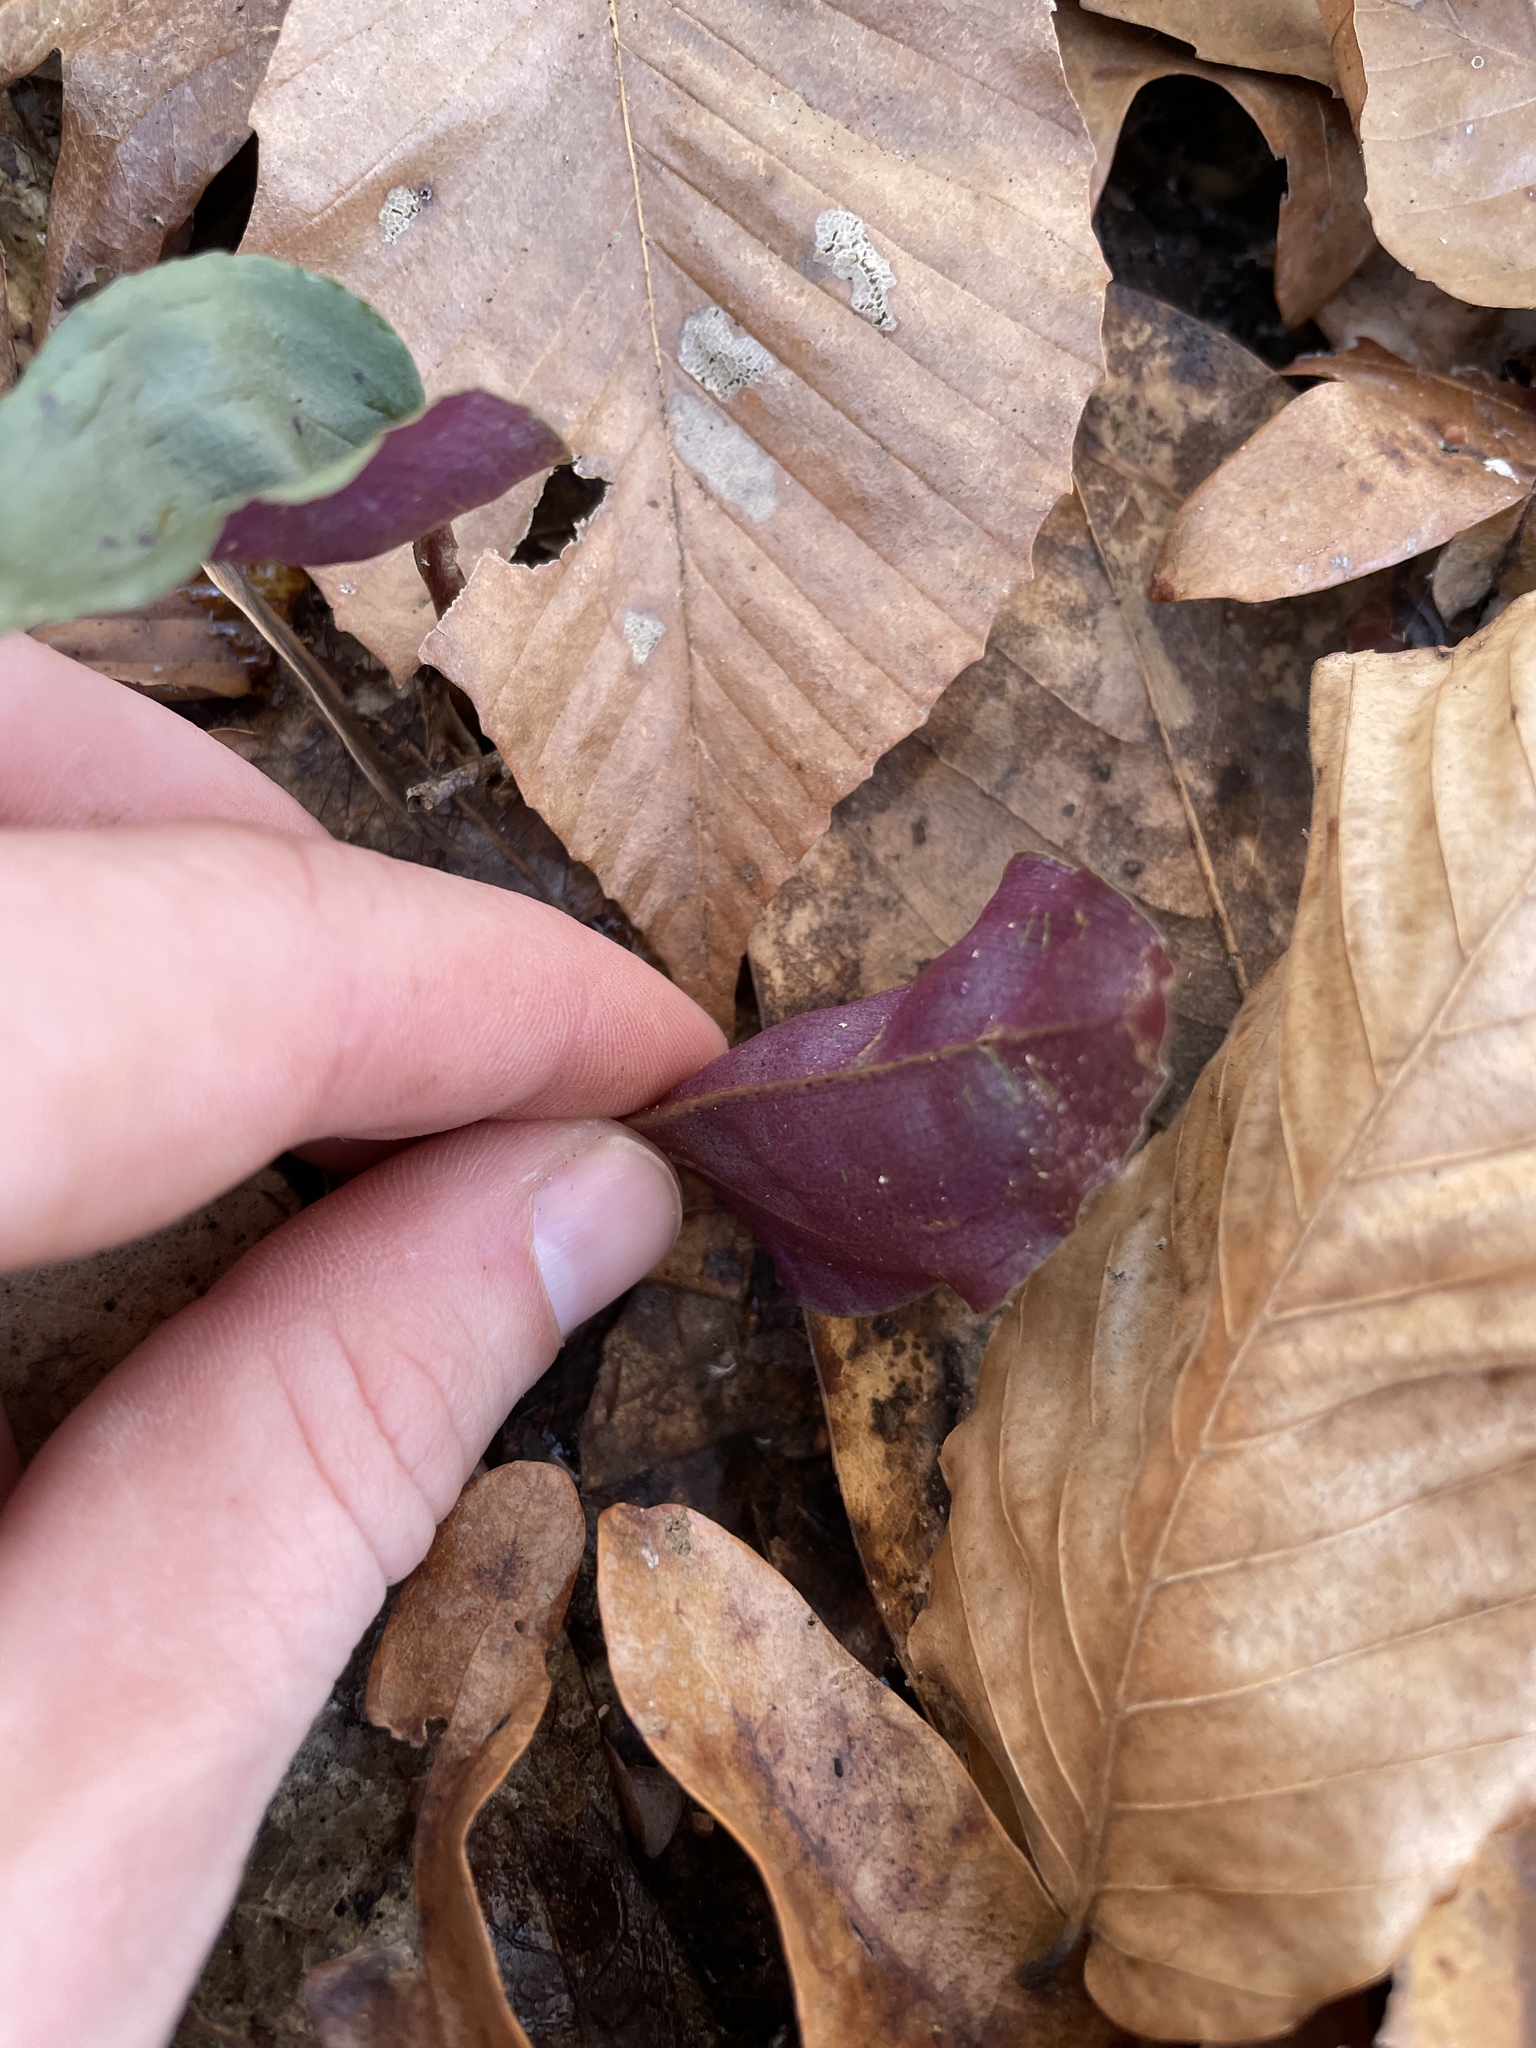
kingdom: Plantae
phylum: Tracheophyta
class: Liliopsida
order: Asparagales
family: Orchidaceae
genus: Tipularia
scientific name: Tipularia discolor
